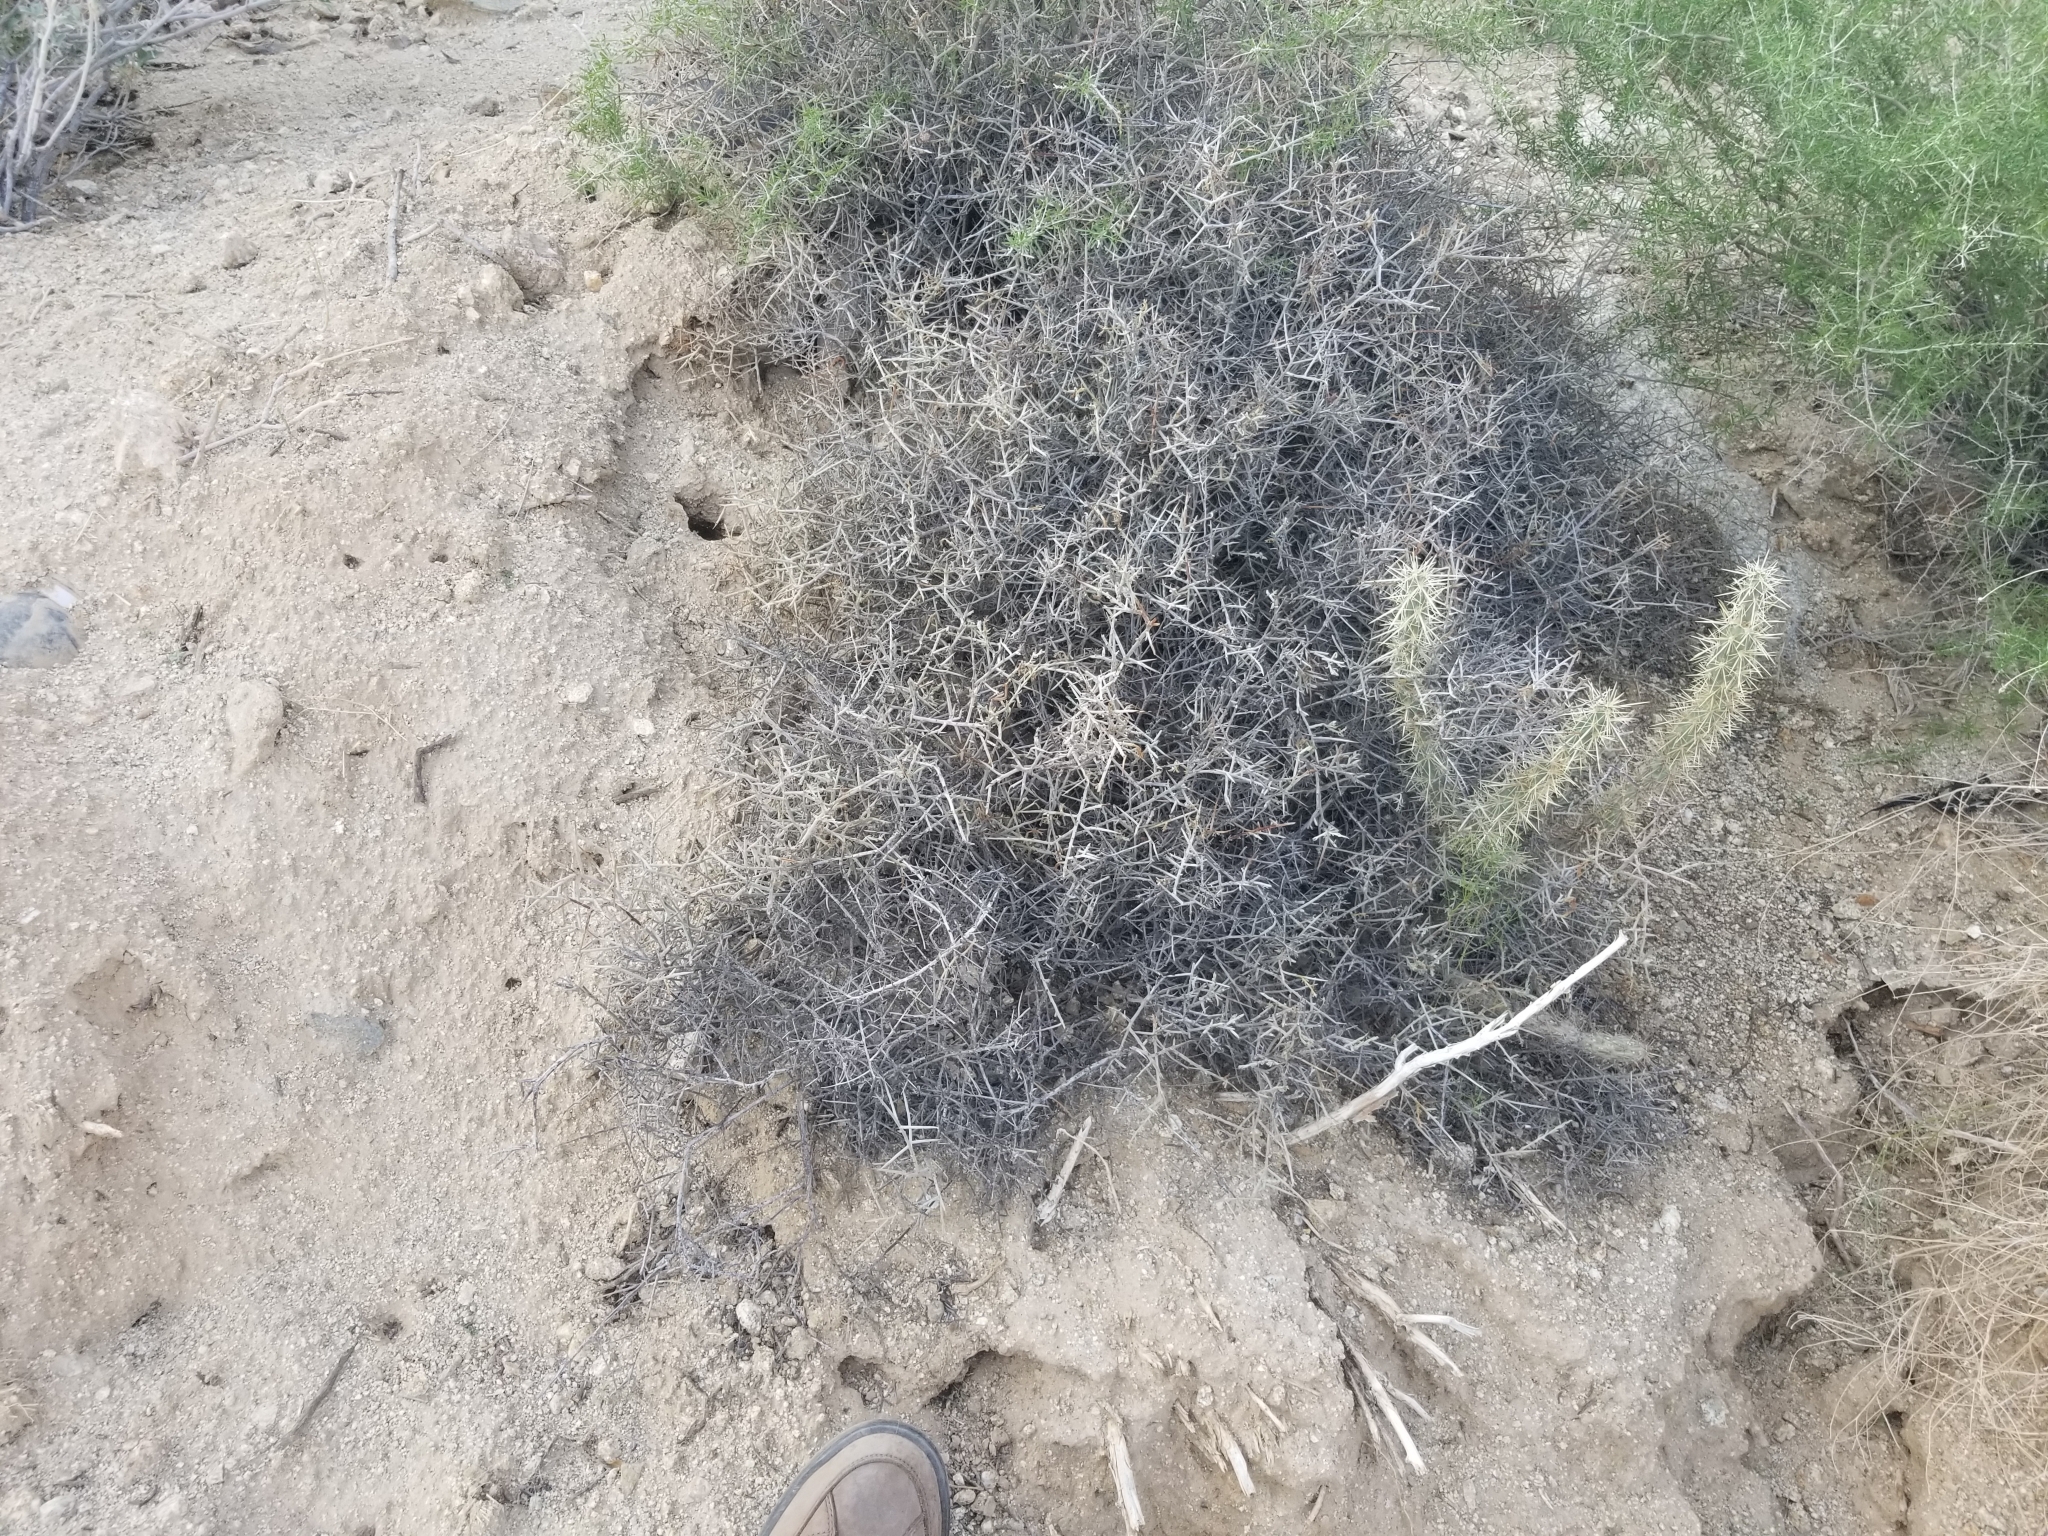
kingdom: Plantae
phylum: Tracheophyta
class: Magnoliopsida
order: Zygophyllales
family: Krameriaceae
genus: Krameria
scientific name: Krameria bicolor
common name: White ratany
